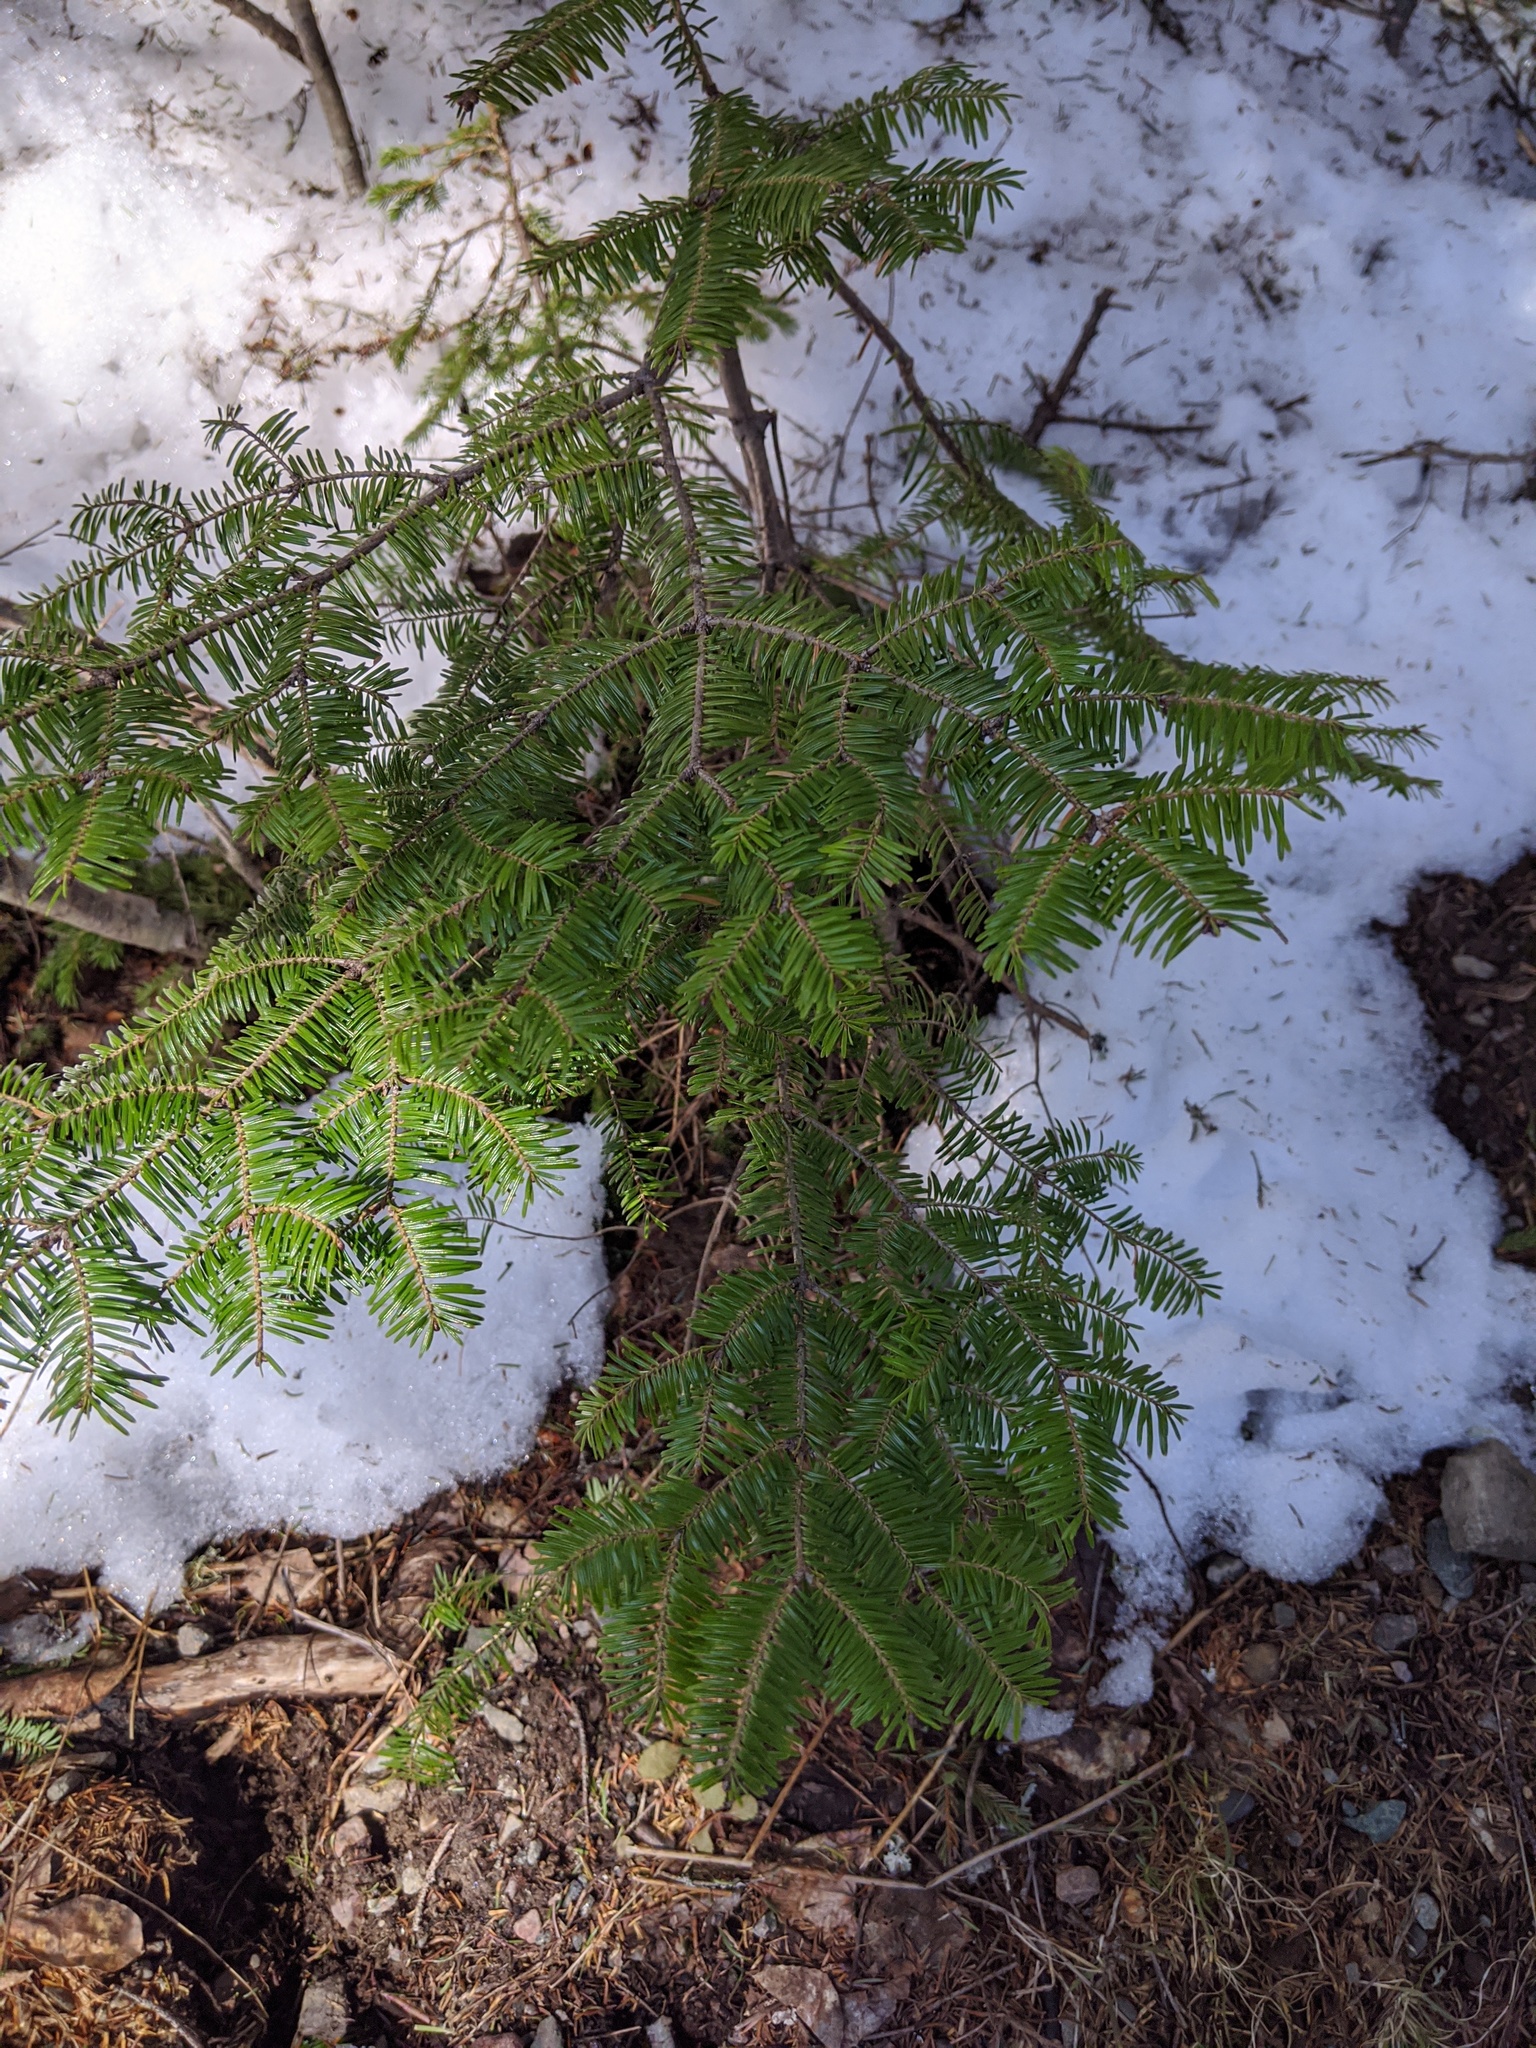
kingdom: Plantae
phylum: Tracheophyta
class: Pinopsida
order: Pinales
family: Pinaceae
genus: Abies
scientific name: Abies balsamea
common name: Balsam fir
